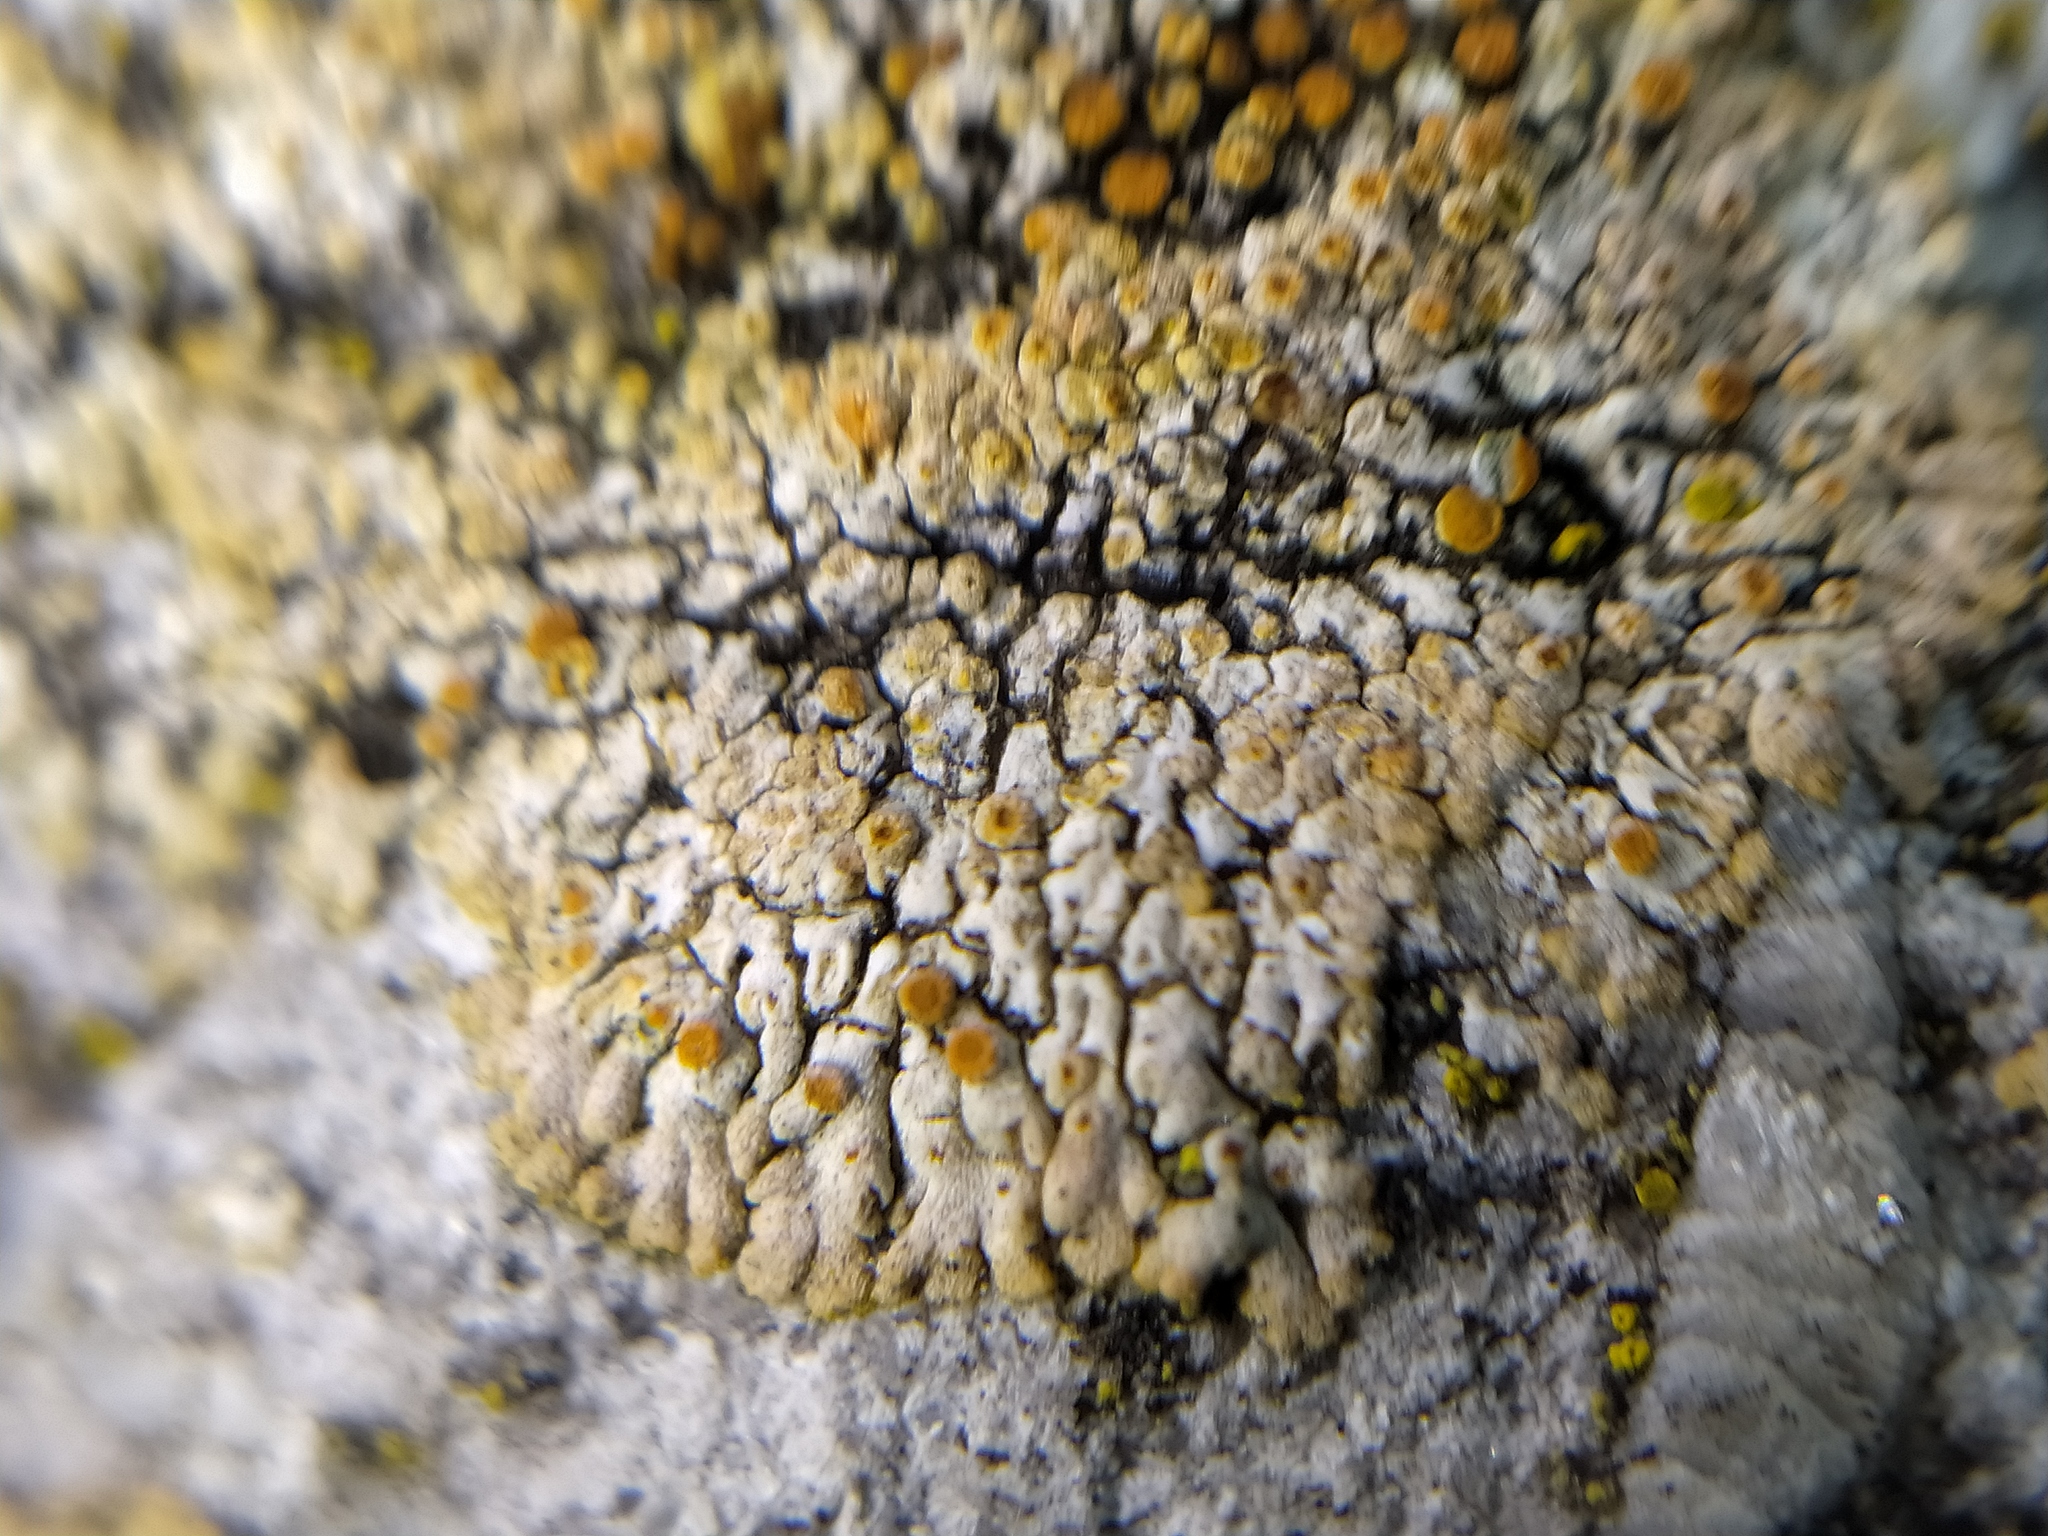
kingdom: Fungi
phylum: Ascomycota
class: Lecanoromycetes
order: Teloschistales
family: Teloschistaceae
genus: Calogaya
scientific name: Calogaya pusilla
